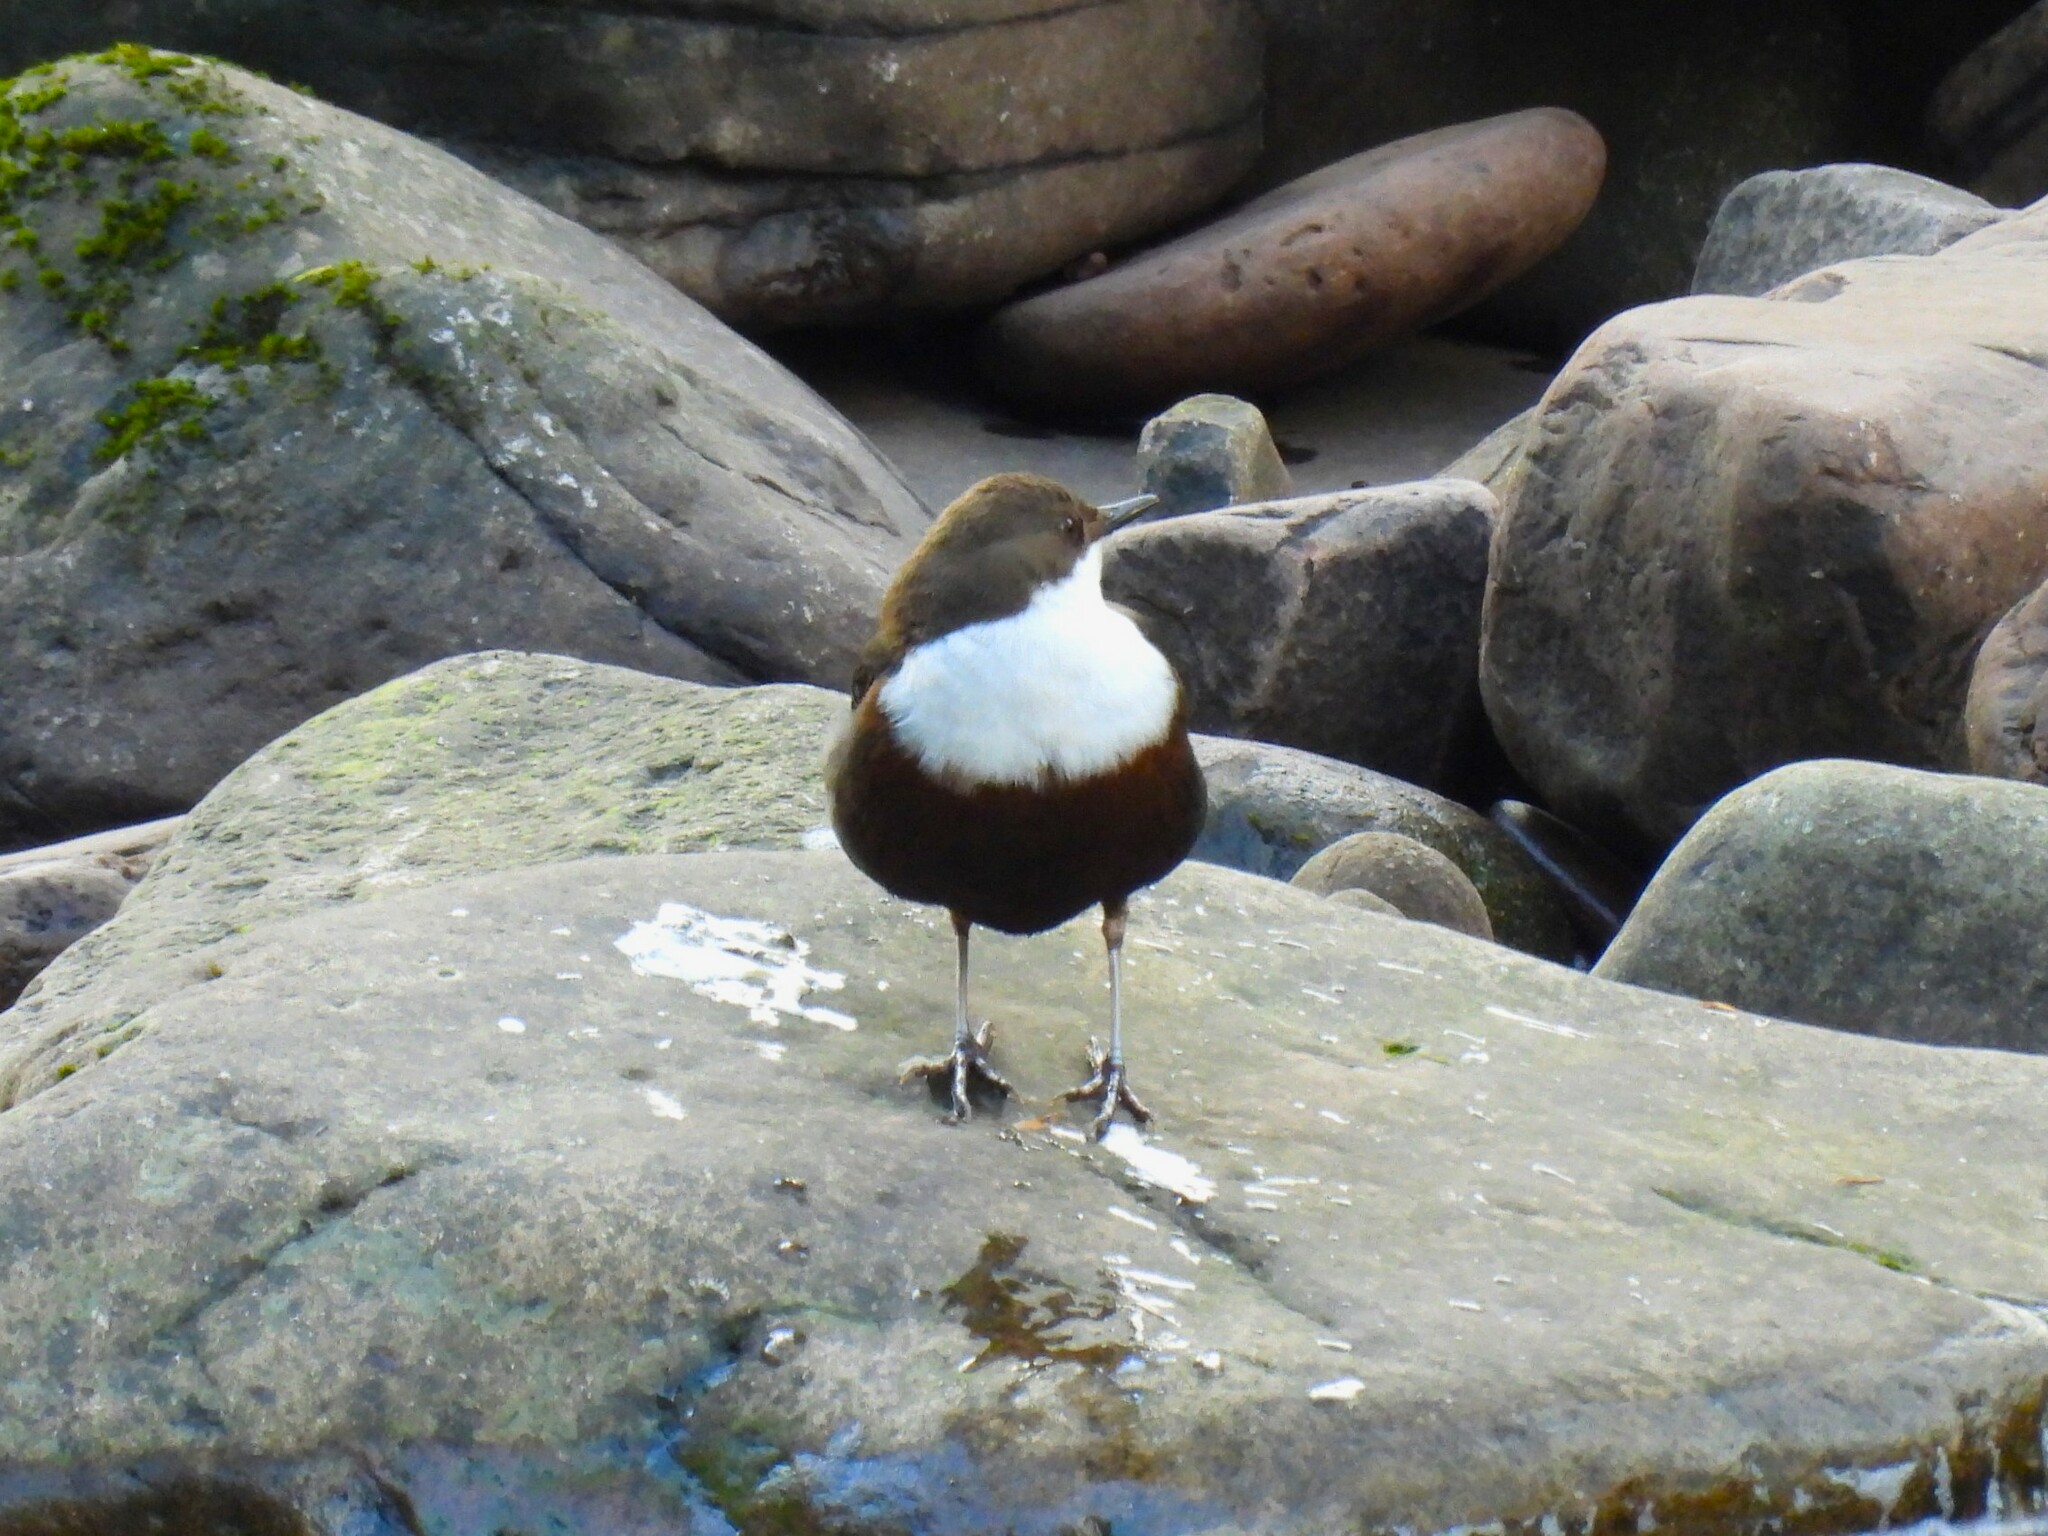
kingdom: Animalia
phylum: Chordata
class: Aves
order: Passeriformes
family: Cinclidae
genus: Cinclus
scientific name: Cinclus cinclus
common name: White-throated dipper
